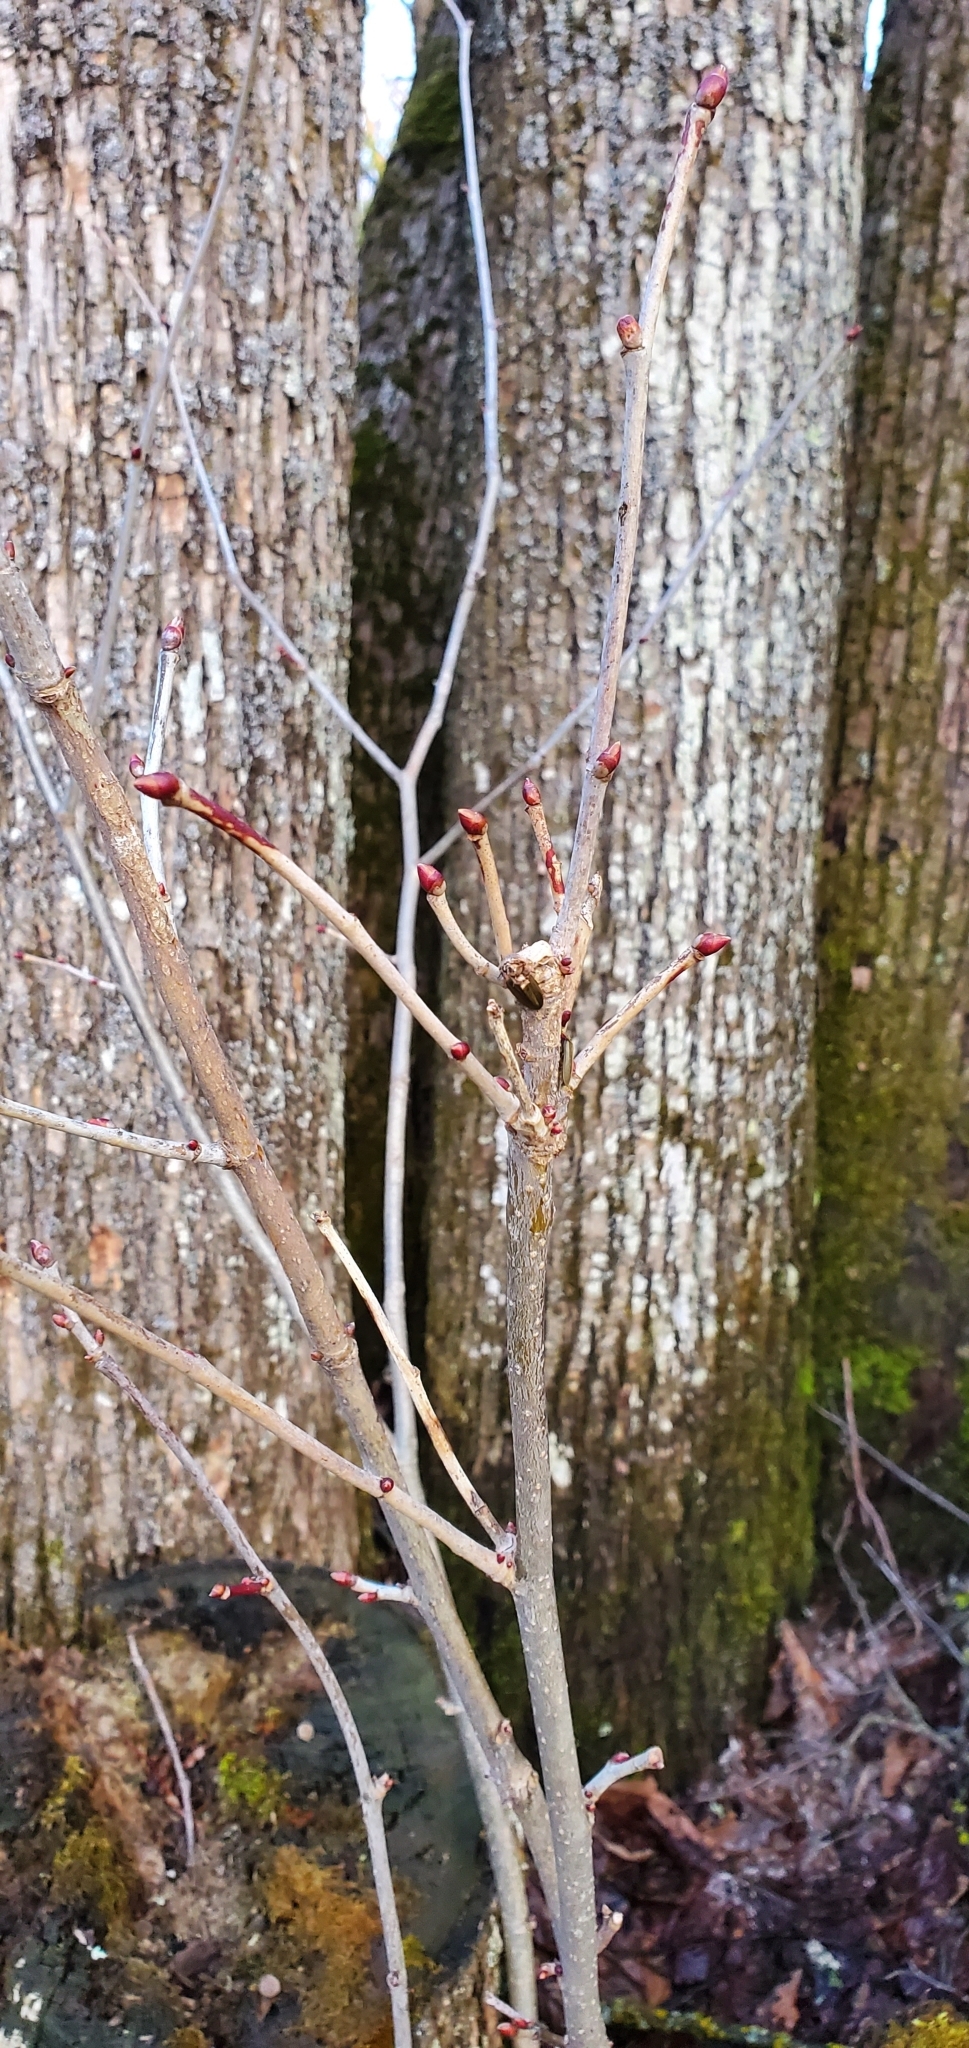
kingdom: Plantae
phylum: Tracheophyta
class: Magnoliopsida
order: Malvales
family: Malvaceae
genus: Tilia
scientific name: Tilia americana
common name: Basswood
